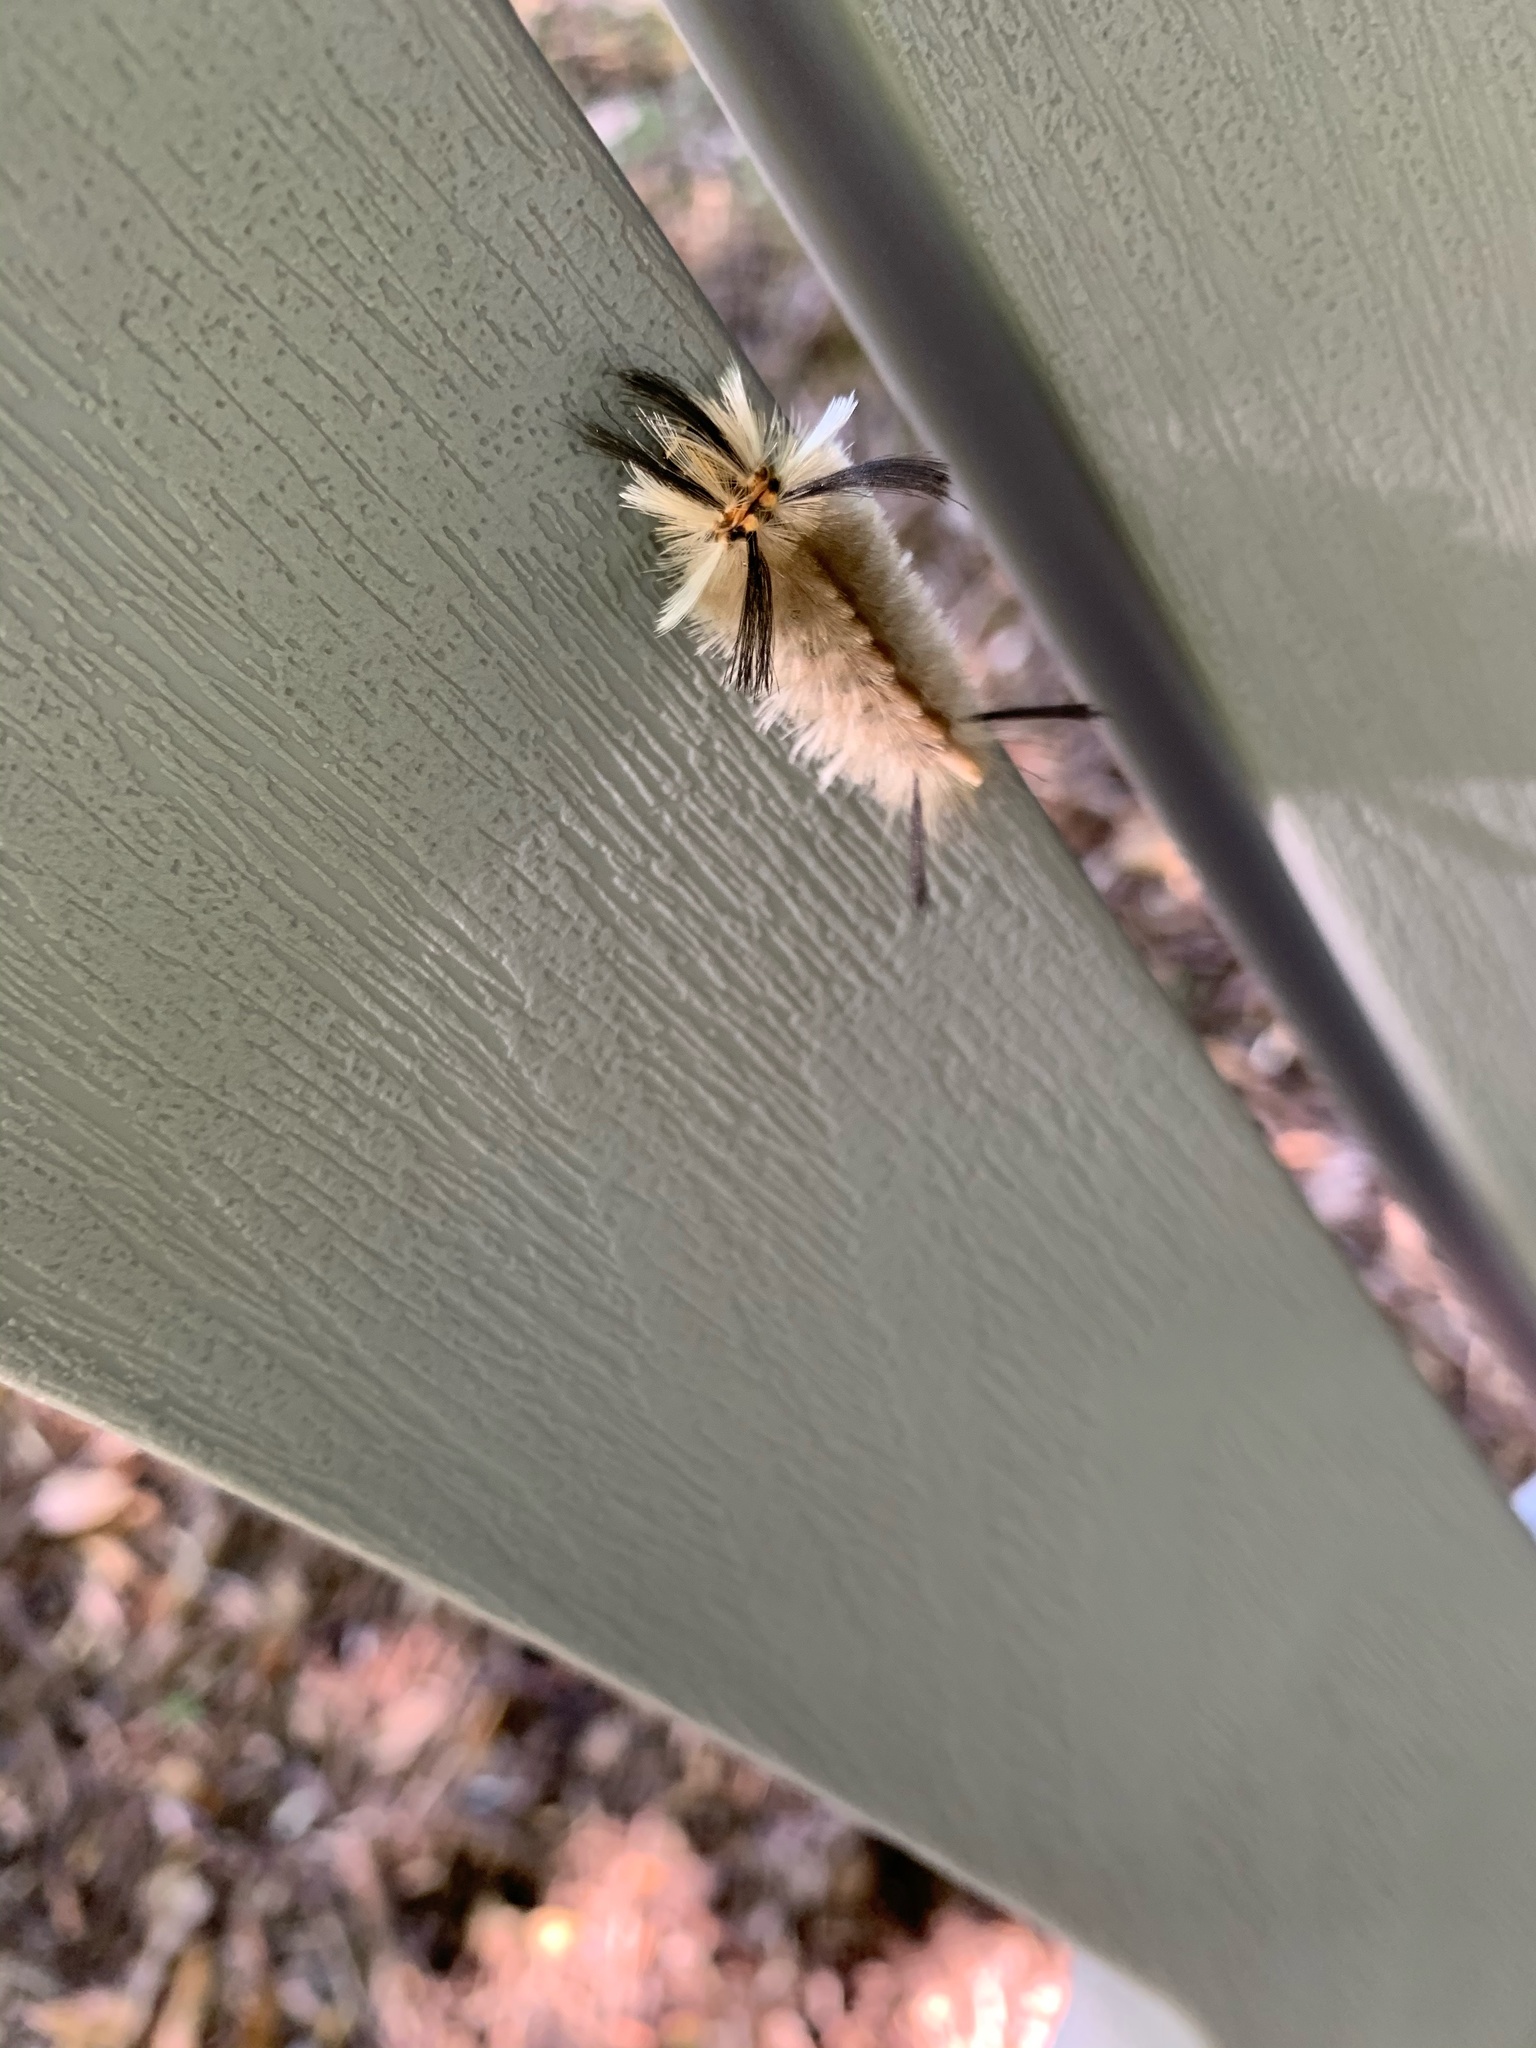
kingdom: Animalia
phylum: Arthropoda
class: Insecta
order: Lepidoptera
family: Erebidae
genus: Halysidota
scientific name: Halysidota tessellaris
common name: Banded tussock moth
